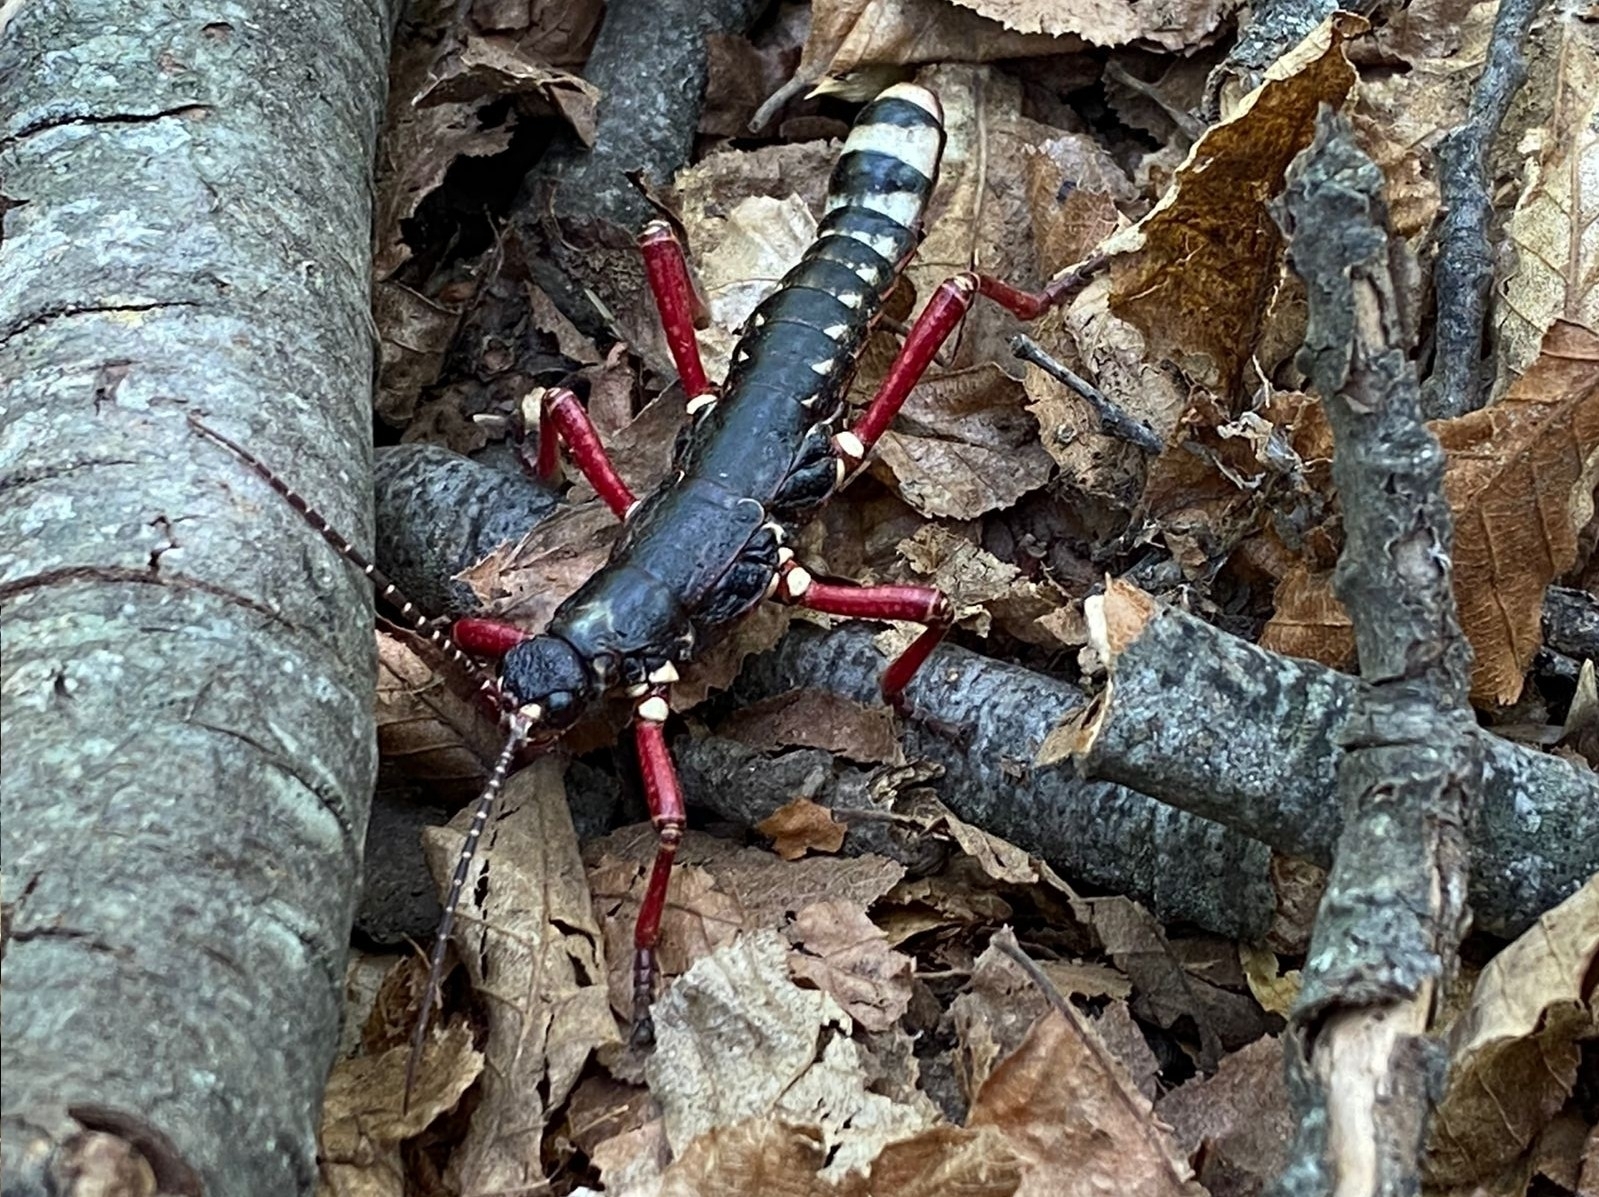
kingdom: Animalia
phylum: Arthropoda
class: Insecta
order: Phasmida
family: Agathemeridae
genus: Agathemera
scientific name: Agathemera mesoauriculae
